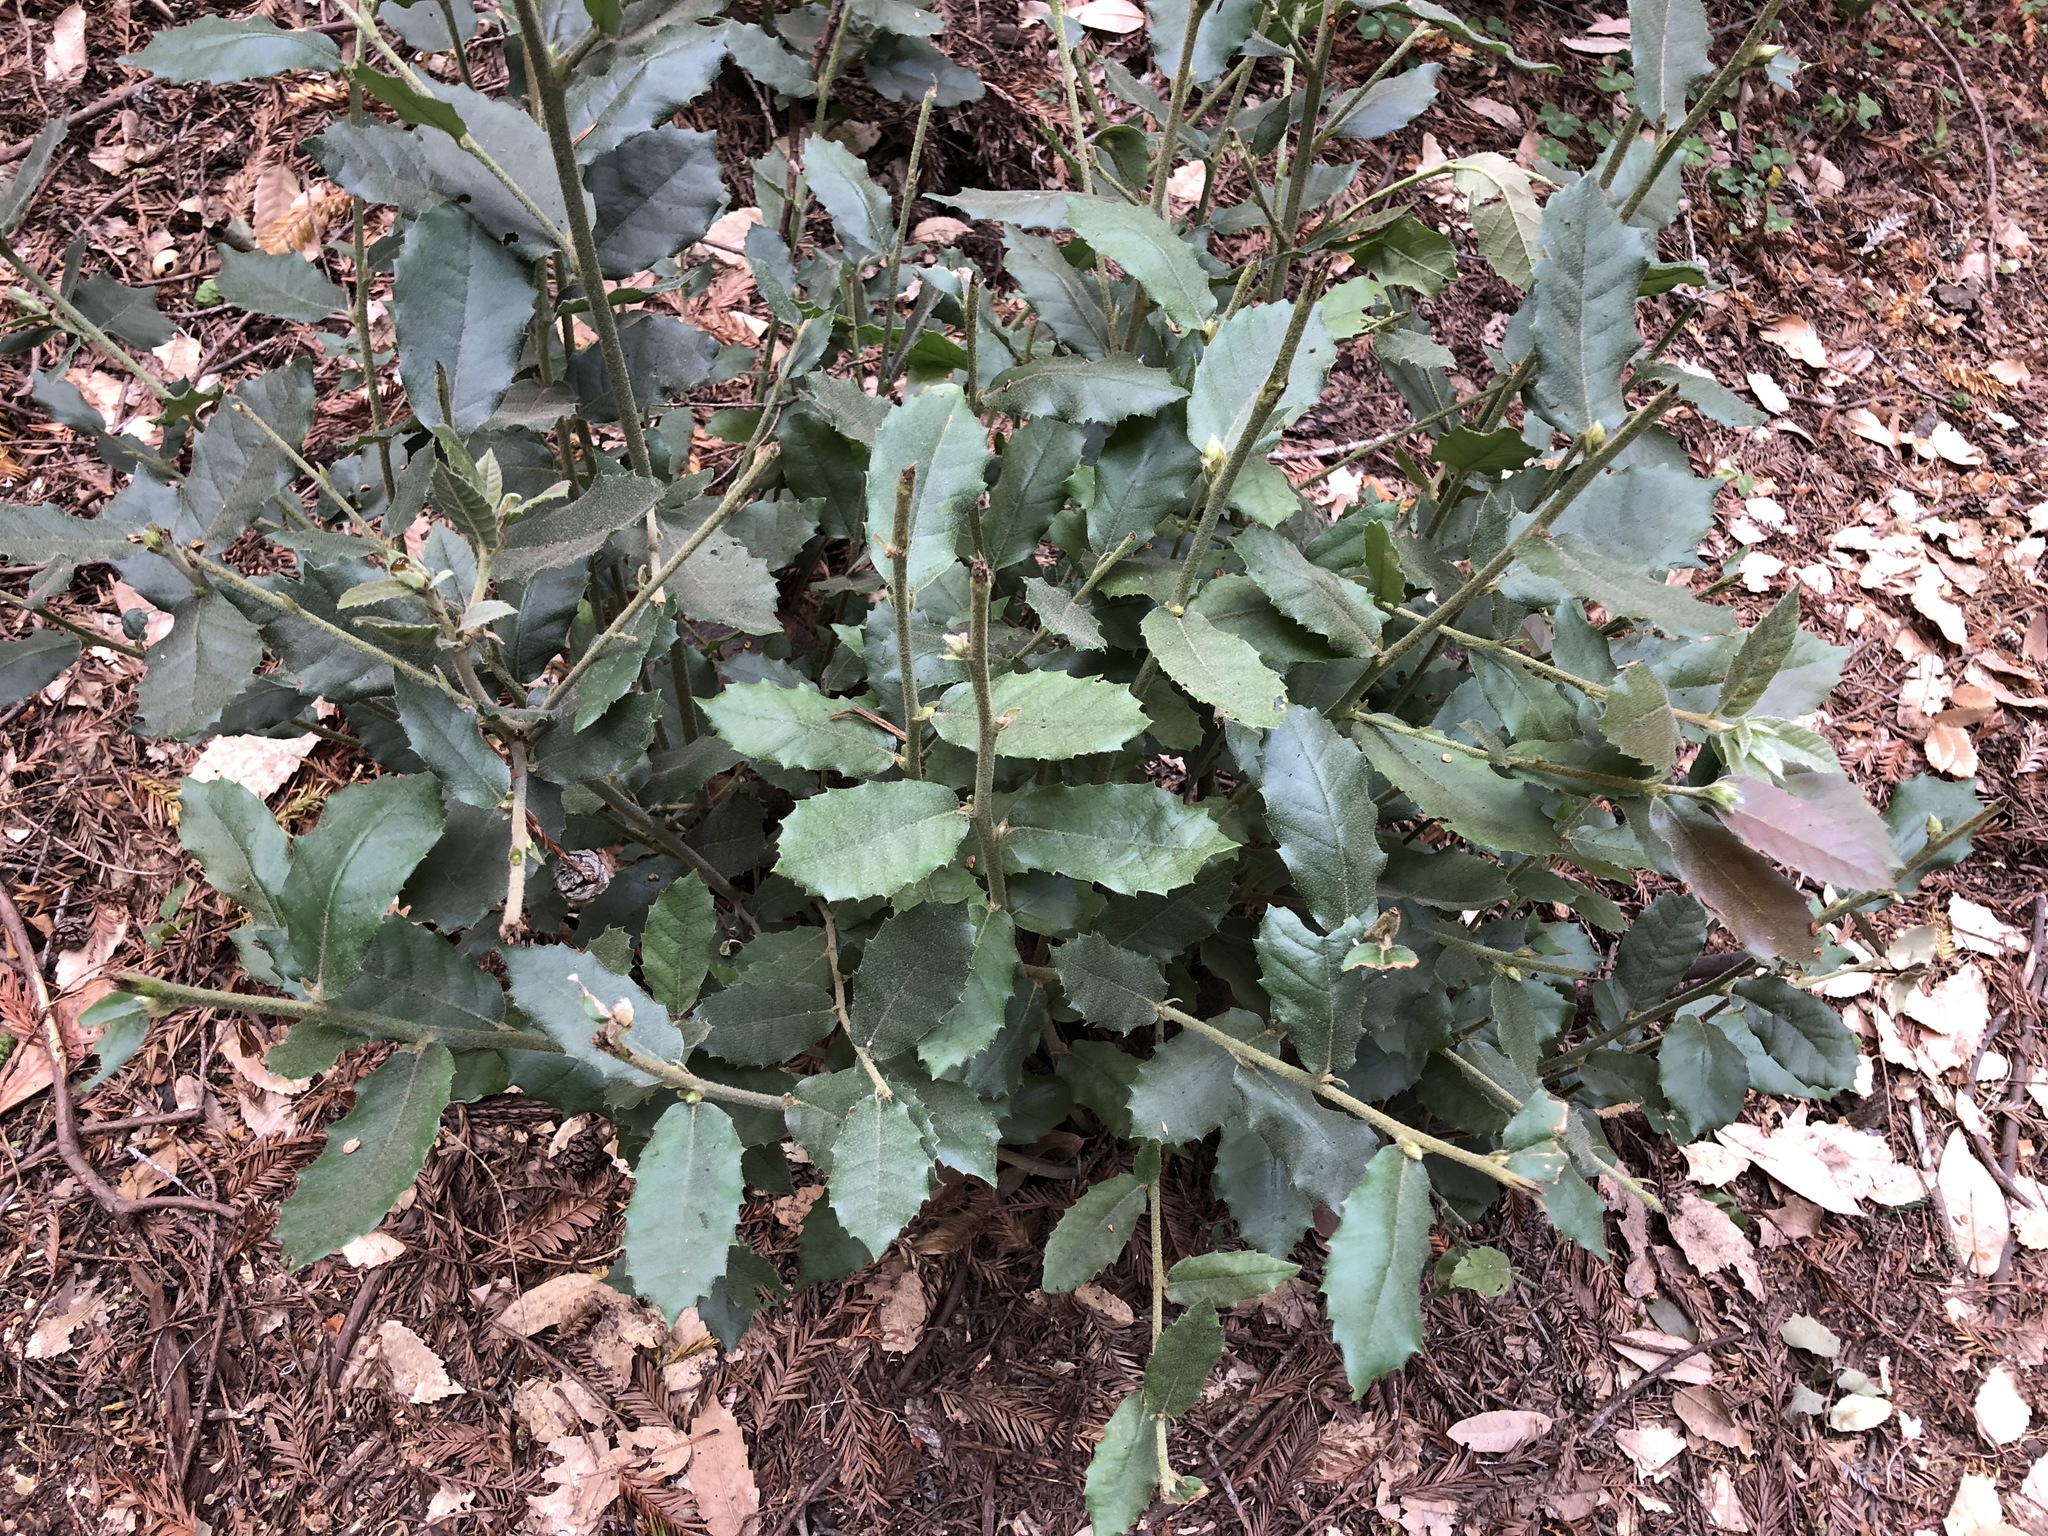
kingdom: Plantae
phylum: Tracheophyta
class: Magnoliopsida
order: Fagales
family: Fagaceae
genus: Notholithocarpus
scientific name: Notholithocarpus densiflorus
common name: Tan bark oak
